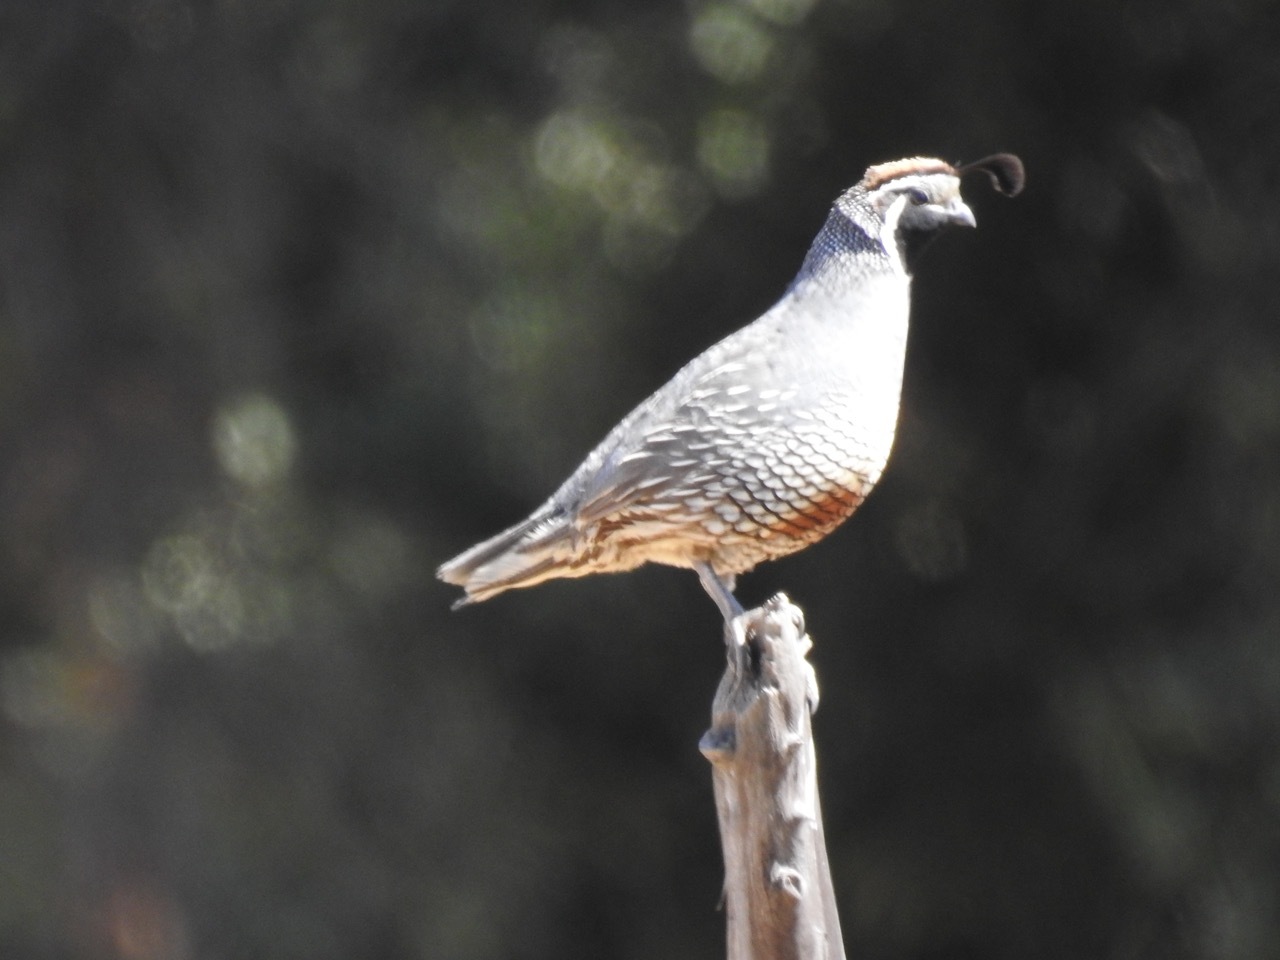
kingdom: Animalia
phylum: Chordata
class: Aves
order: Galliformes
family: Odontophoridae
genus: Callipepla
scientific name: Callipepla californica
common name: California quail
